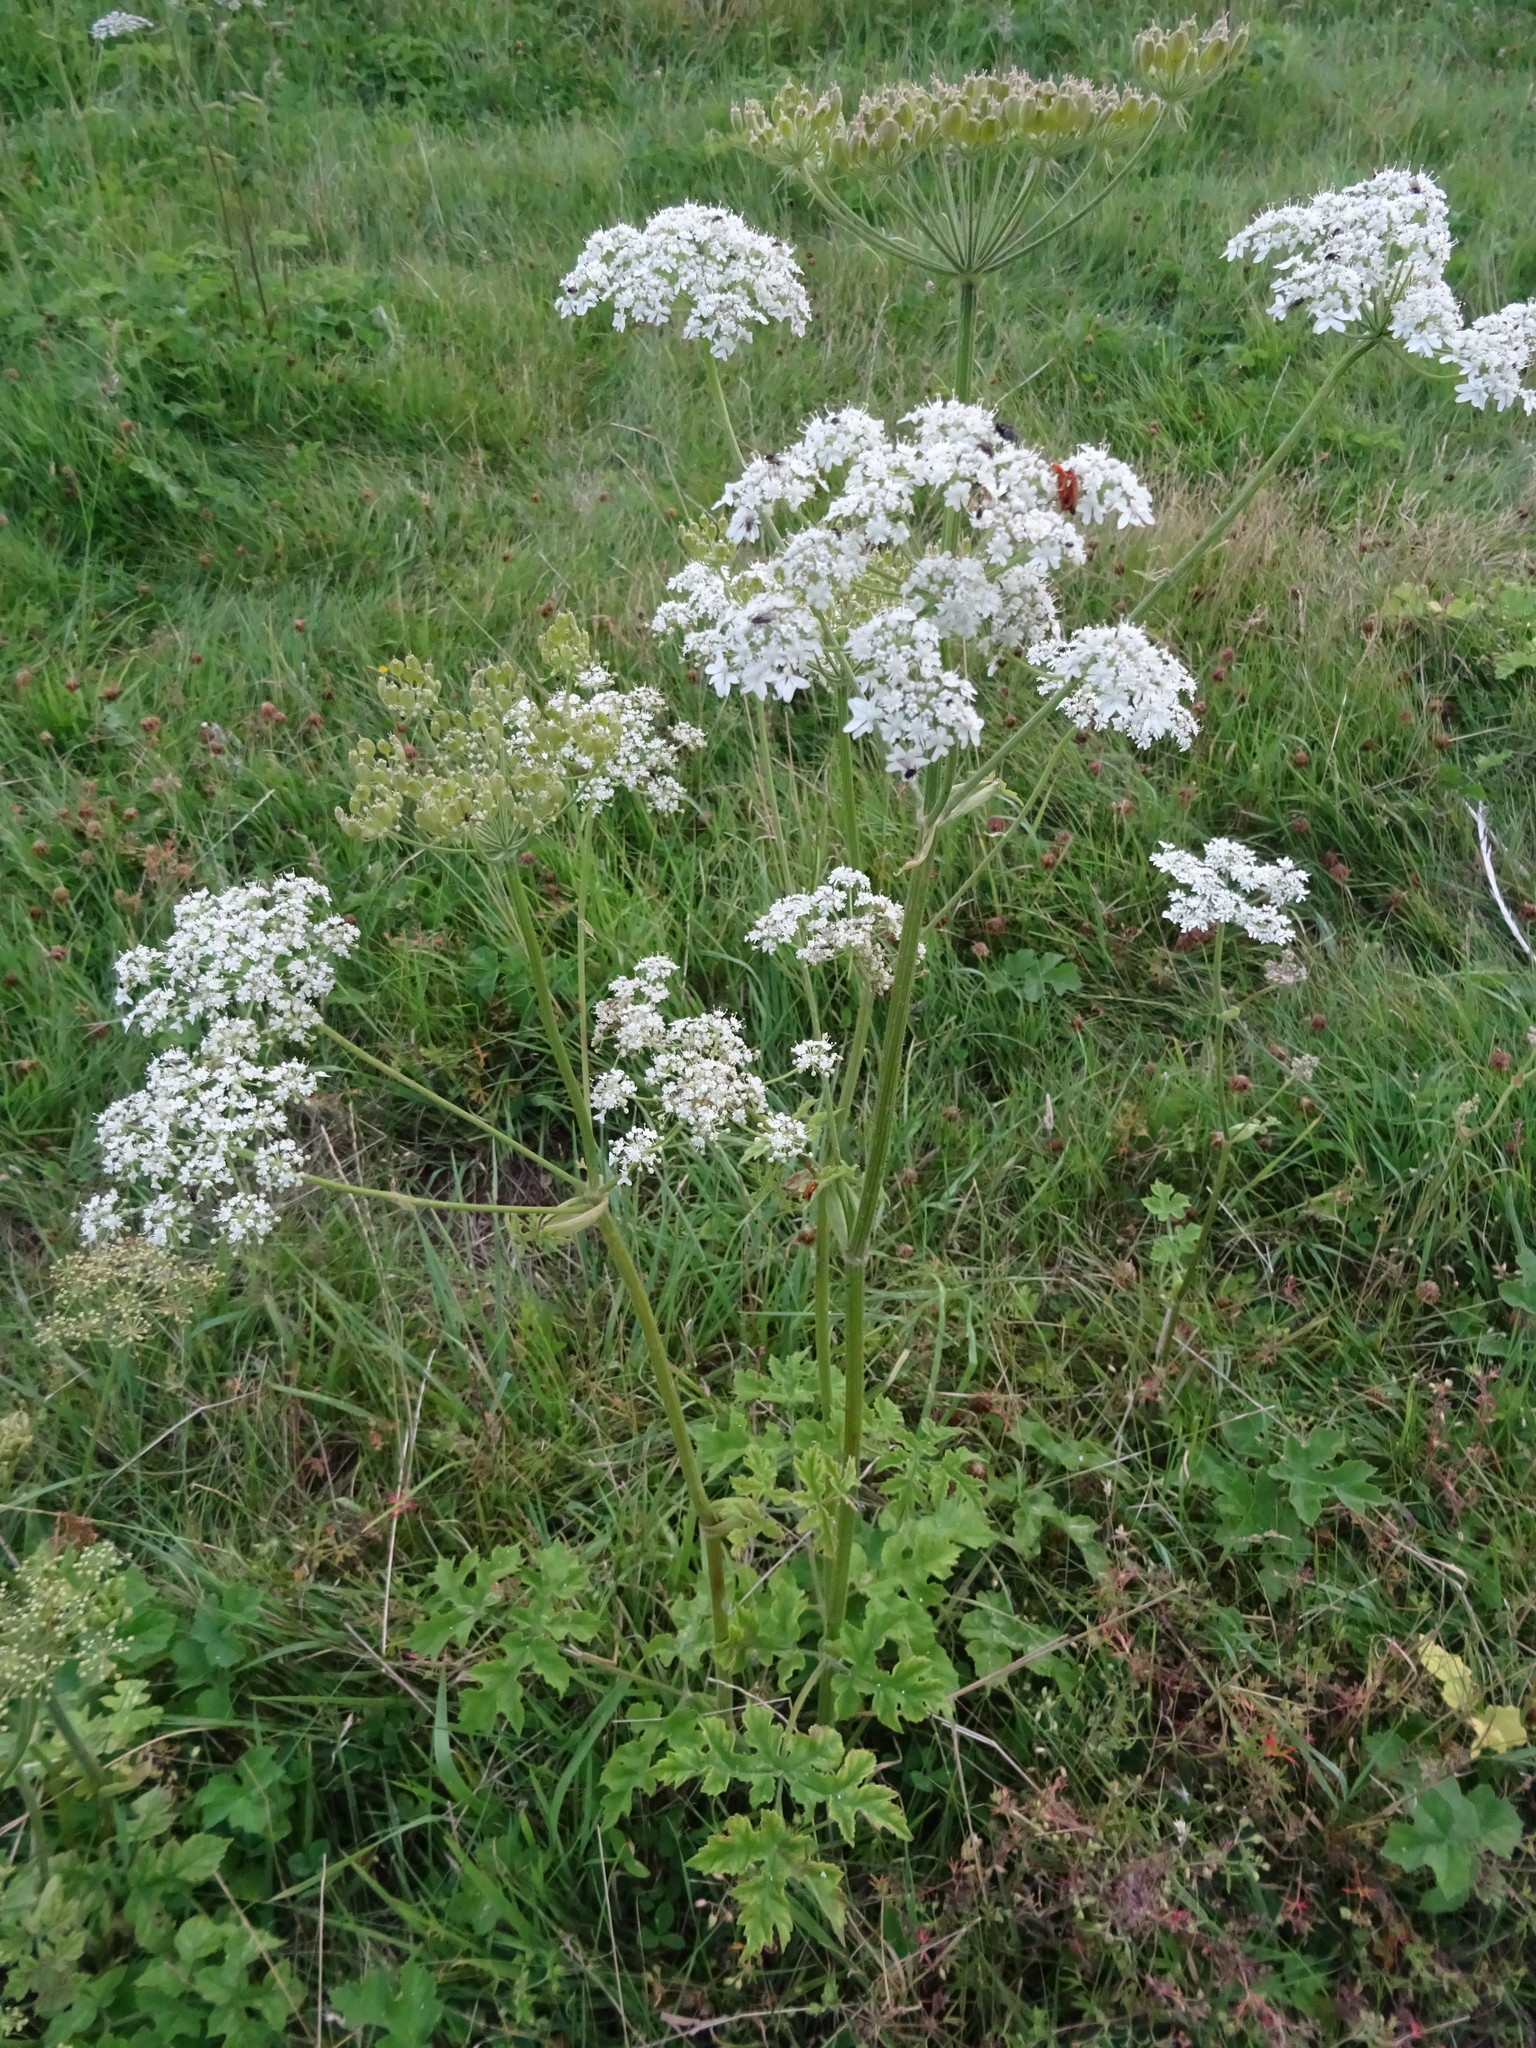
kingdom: Plantae
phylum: Tracheophyta
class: Magnoliopsida
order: Apiales
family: Apiaceae
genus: Heracleum
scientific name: Heracleum sphondylium
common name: Hogweed
